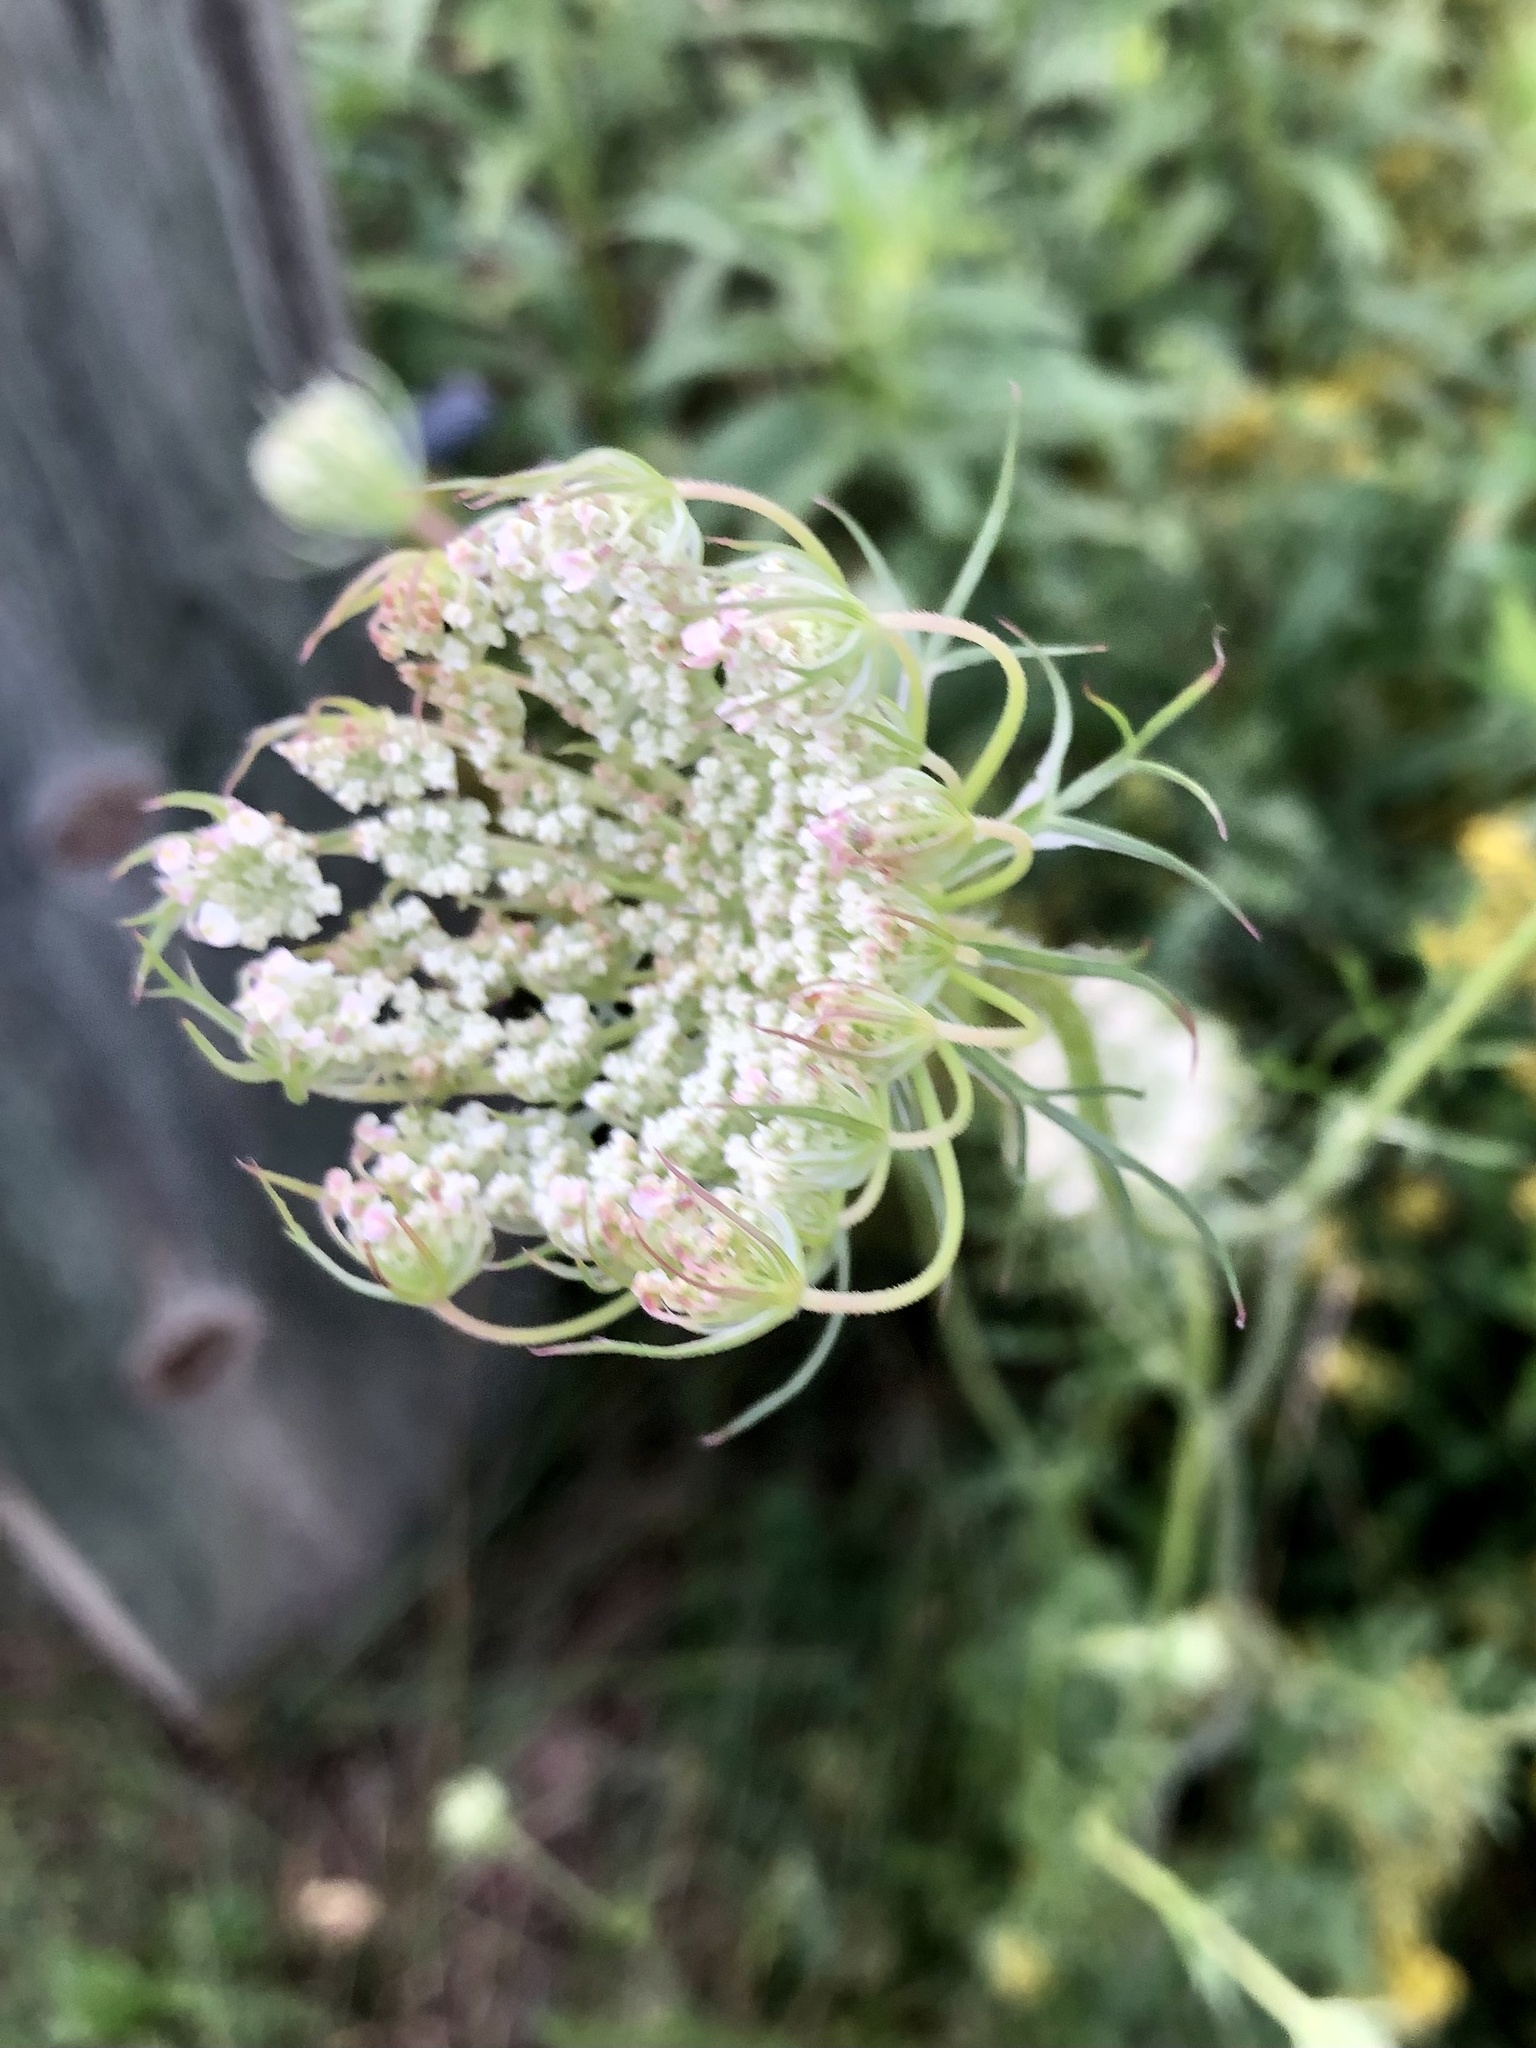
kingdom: Plantae
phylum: Tracheophyta
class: Magnoliopsida
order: Apiales
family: Apiaceae
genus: Daucus
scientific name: Daucus carota
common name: Wild carrot
